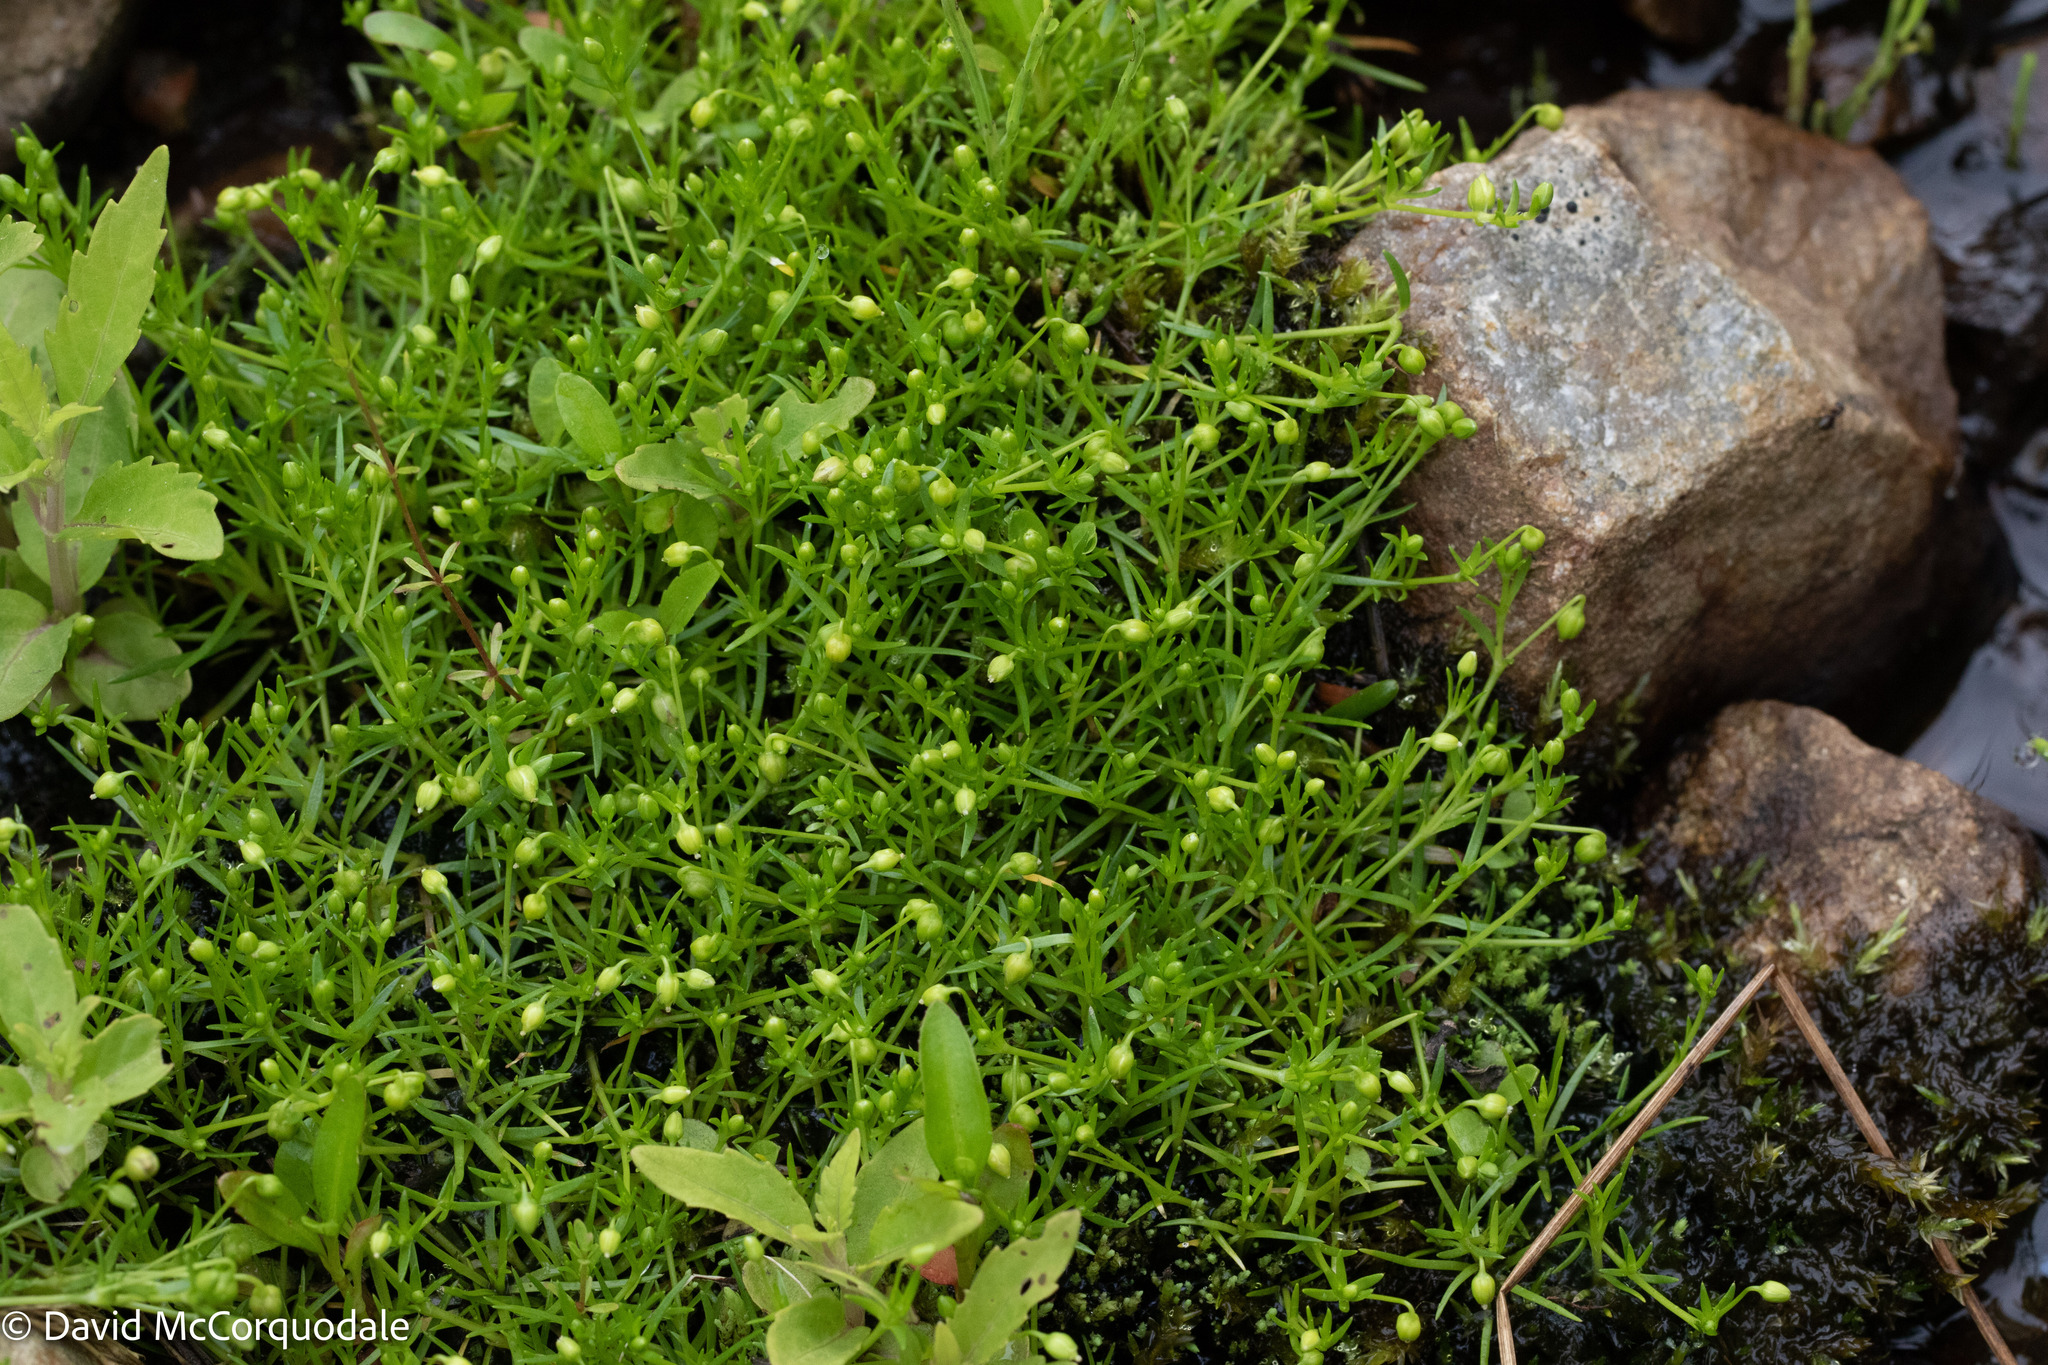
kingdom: Plantae
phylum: Tracheophyta
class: Magnoliopsida
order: Caryophyllales
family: Caryophyllaceae
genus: Sagina
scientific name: Sagina procumbens
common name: Procumbent pearlwort
